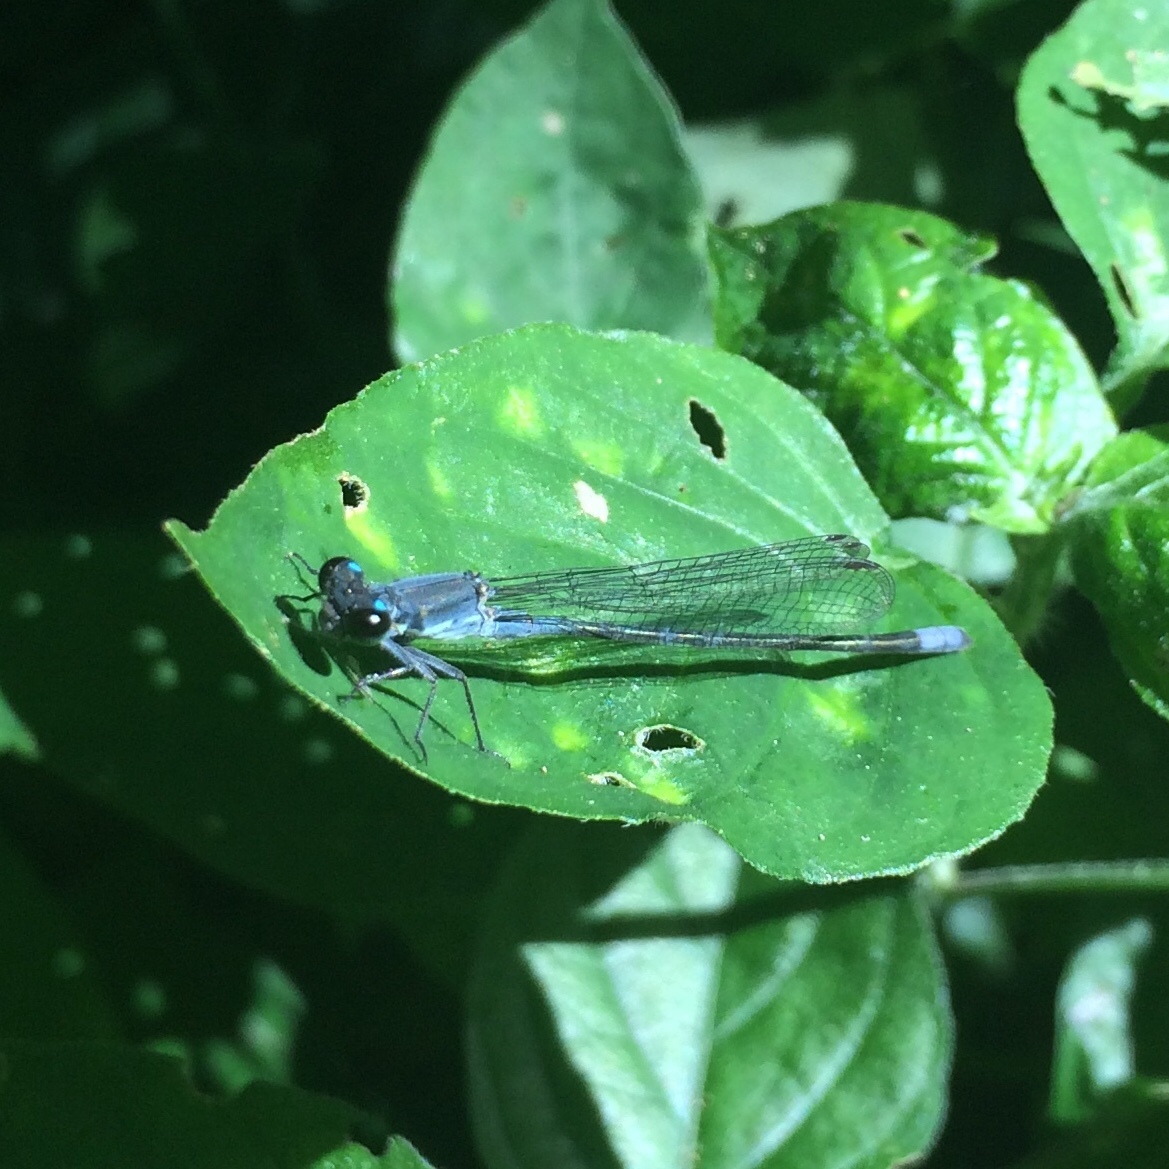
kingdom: Animalia
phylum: Arthropoda
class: Insecta
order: Odonata
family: Coenagrionidae
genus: Pseudagrion
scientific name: Pseudagrion salisburyense
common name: Slate sprite
